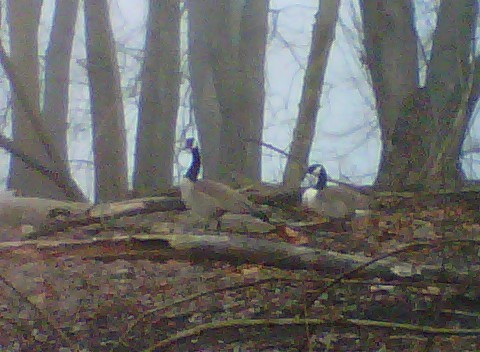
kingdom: Animalia
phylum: Chordata
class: Aves
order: Anseriformes
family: Anatidae
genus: Branta
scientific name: Branta canadensis
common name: Canada goose
